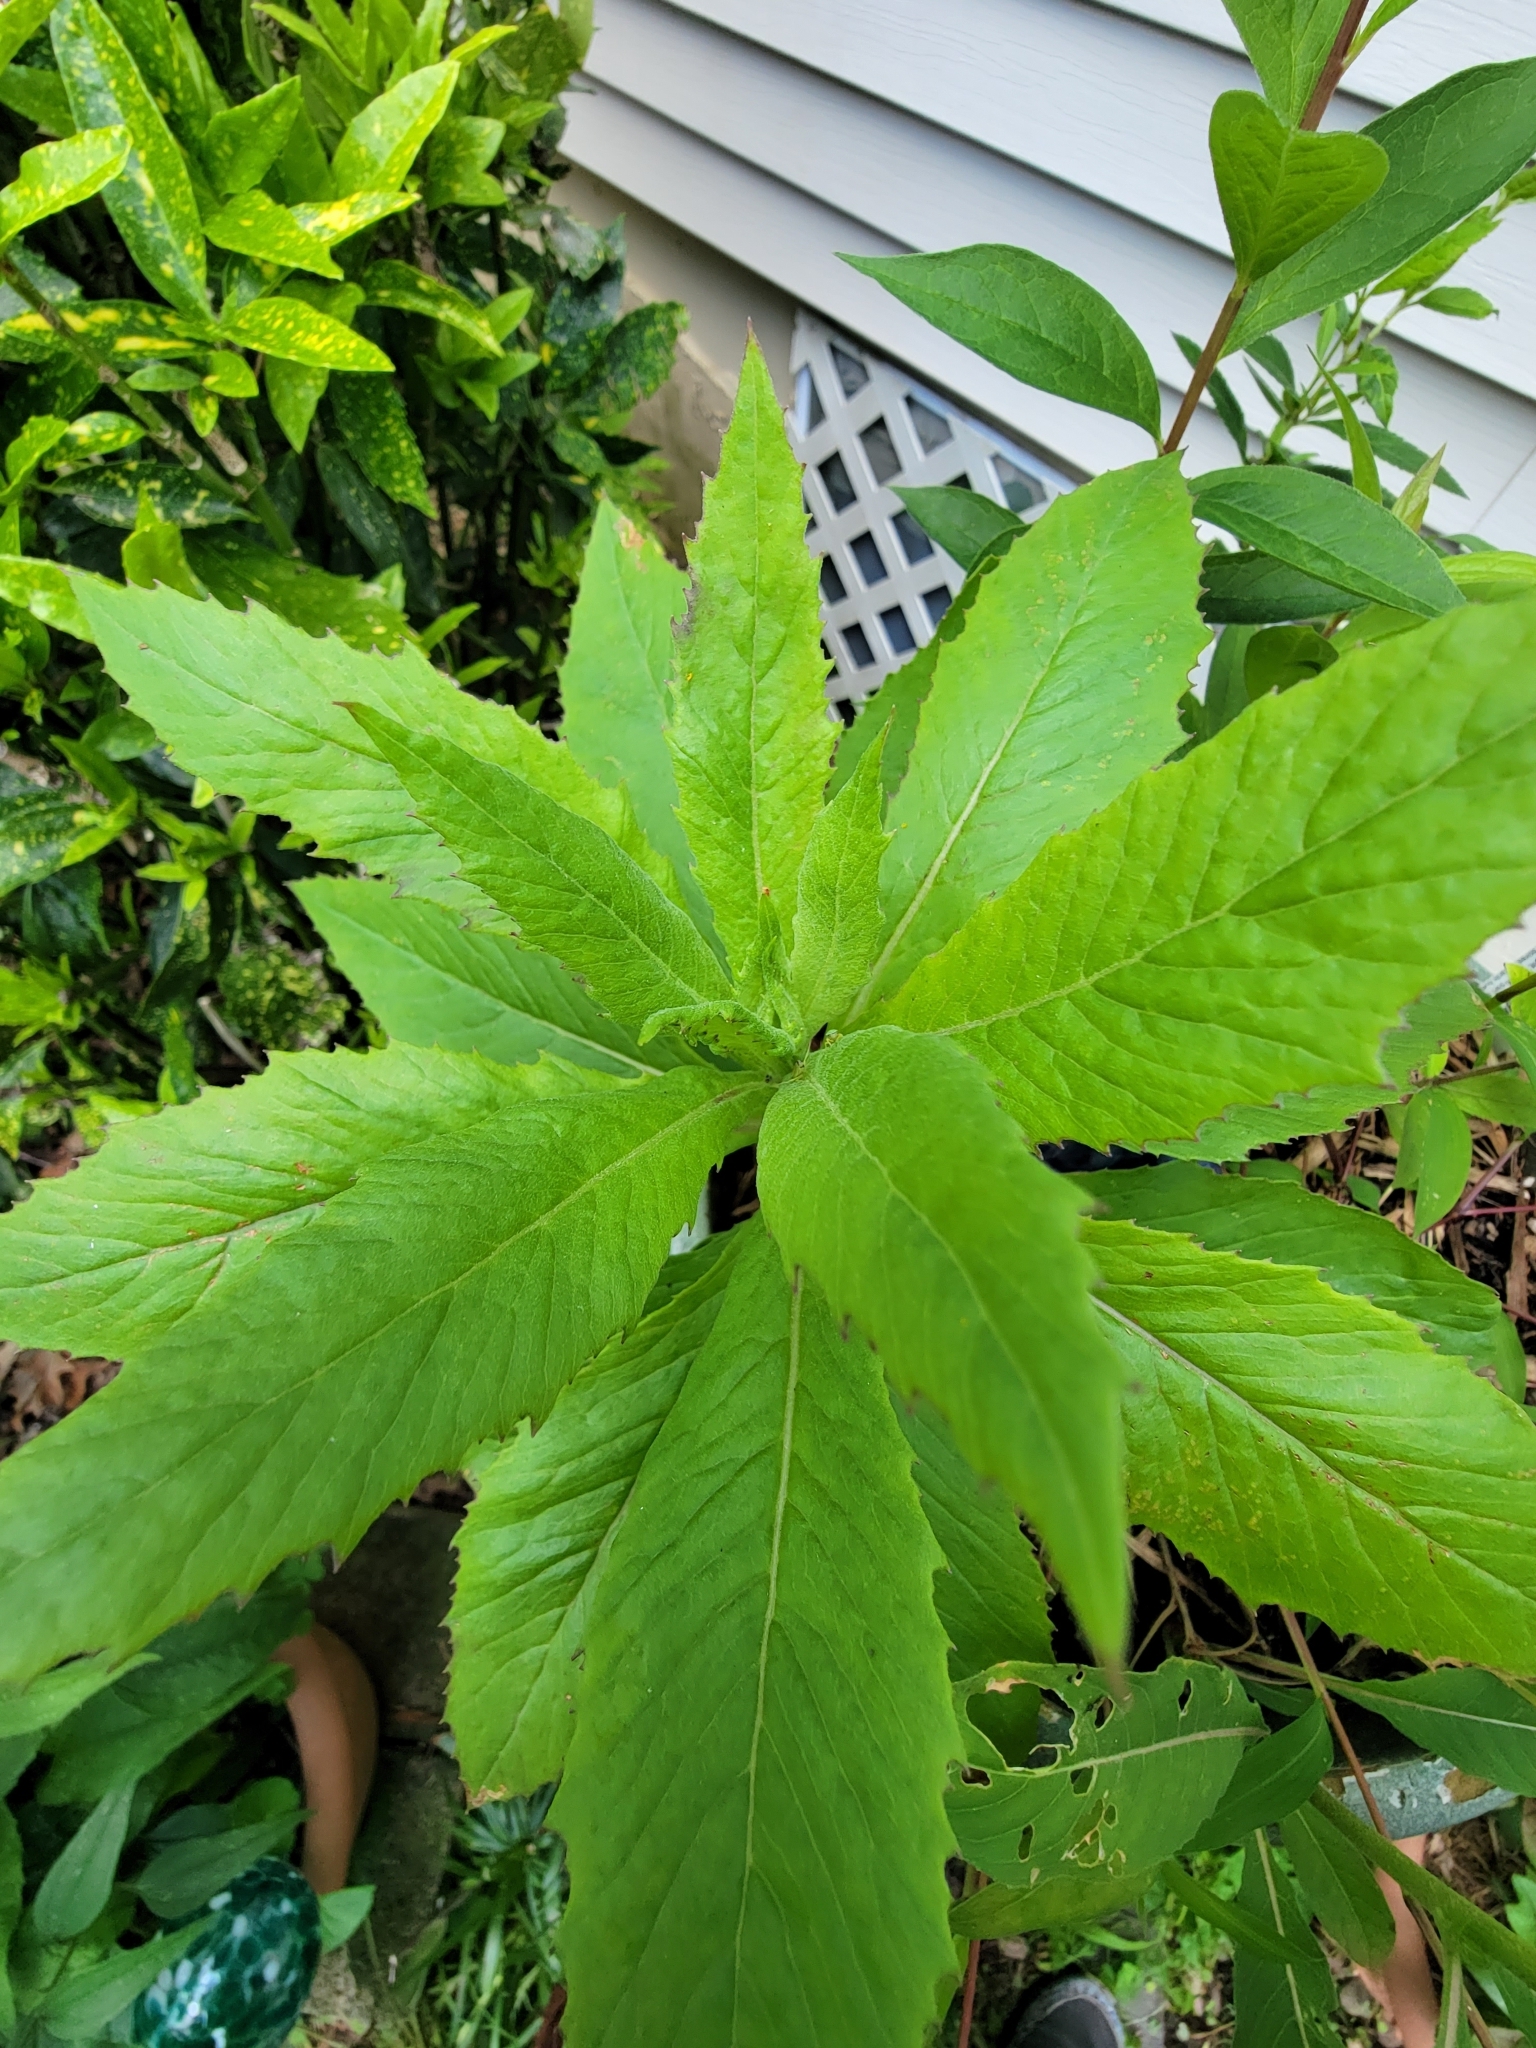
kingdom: Plantae
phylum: Tracheophyta
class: Magnoliopsida
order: Asterales
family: Asteraceae
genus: Erechtites
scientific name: Erechtites hieraciifolius
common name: American burnweed
